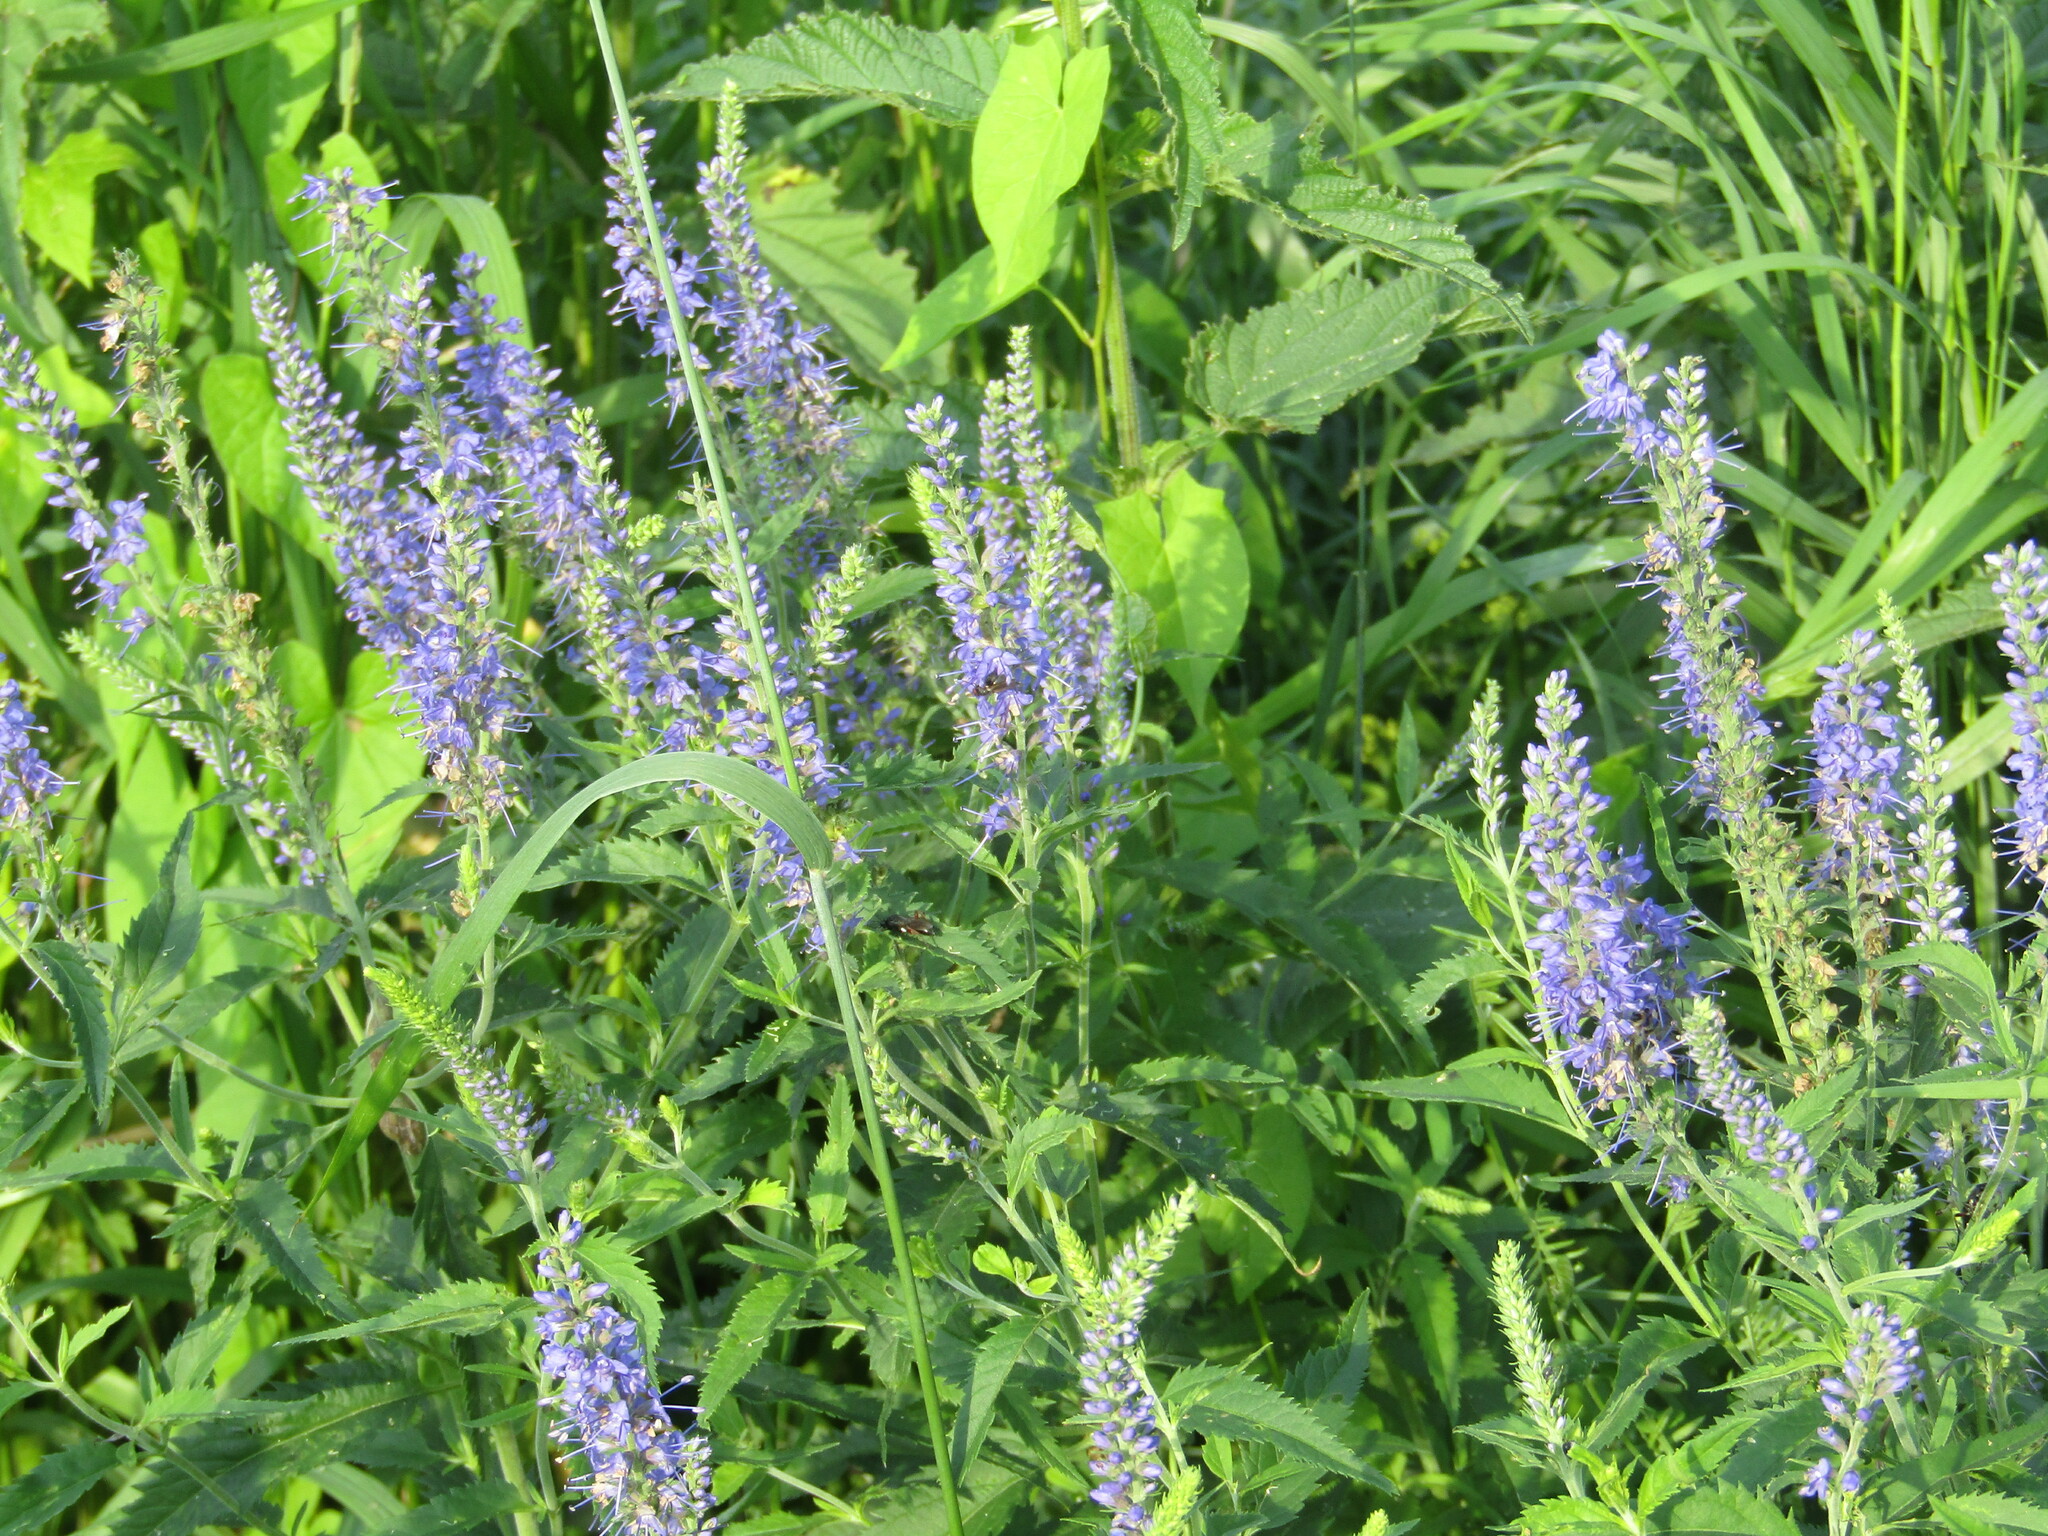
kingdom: Plantae
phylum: Tracheophyta
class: Magnoliopsida
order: Lamiales
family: Plantaginaceae
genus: Veronica
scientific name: Veronica longifolia
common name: Garden speedwell
